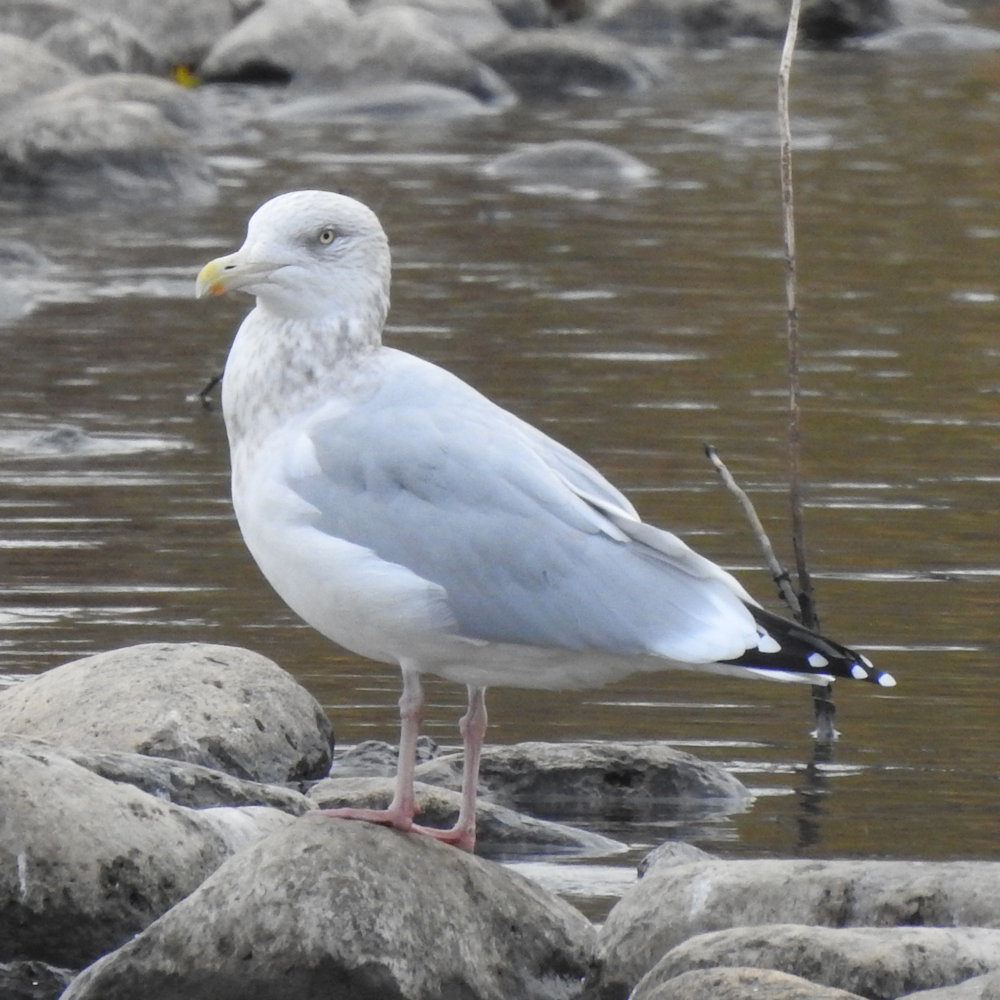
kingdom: Animalia
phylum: Chordata
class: Aves
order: Charadriiformes
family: Laridae
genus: Larus
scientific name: Larus argentatus
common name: Herring gull
